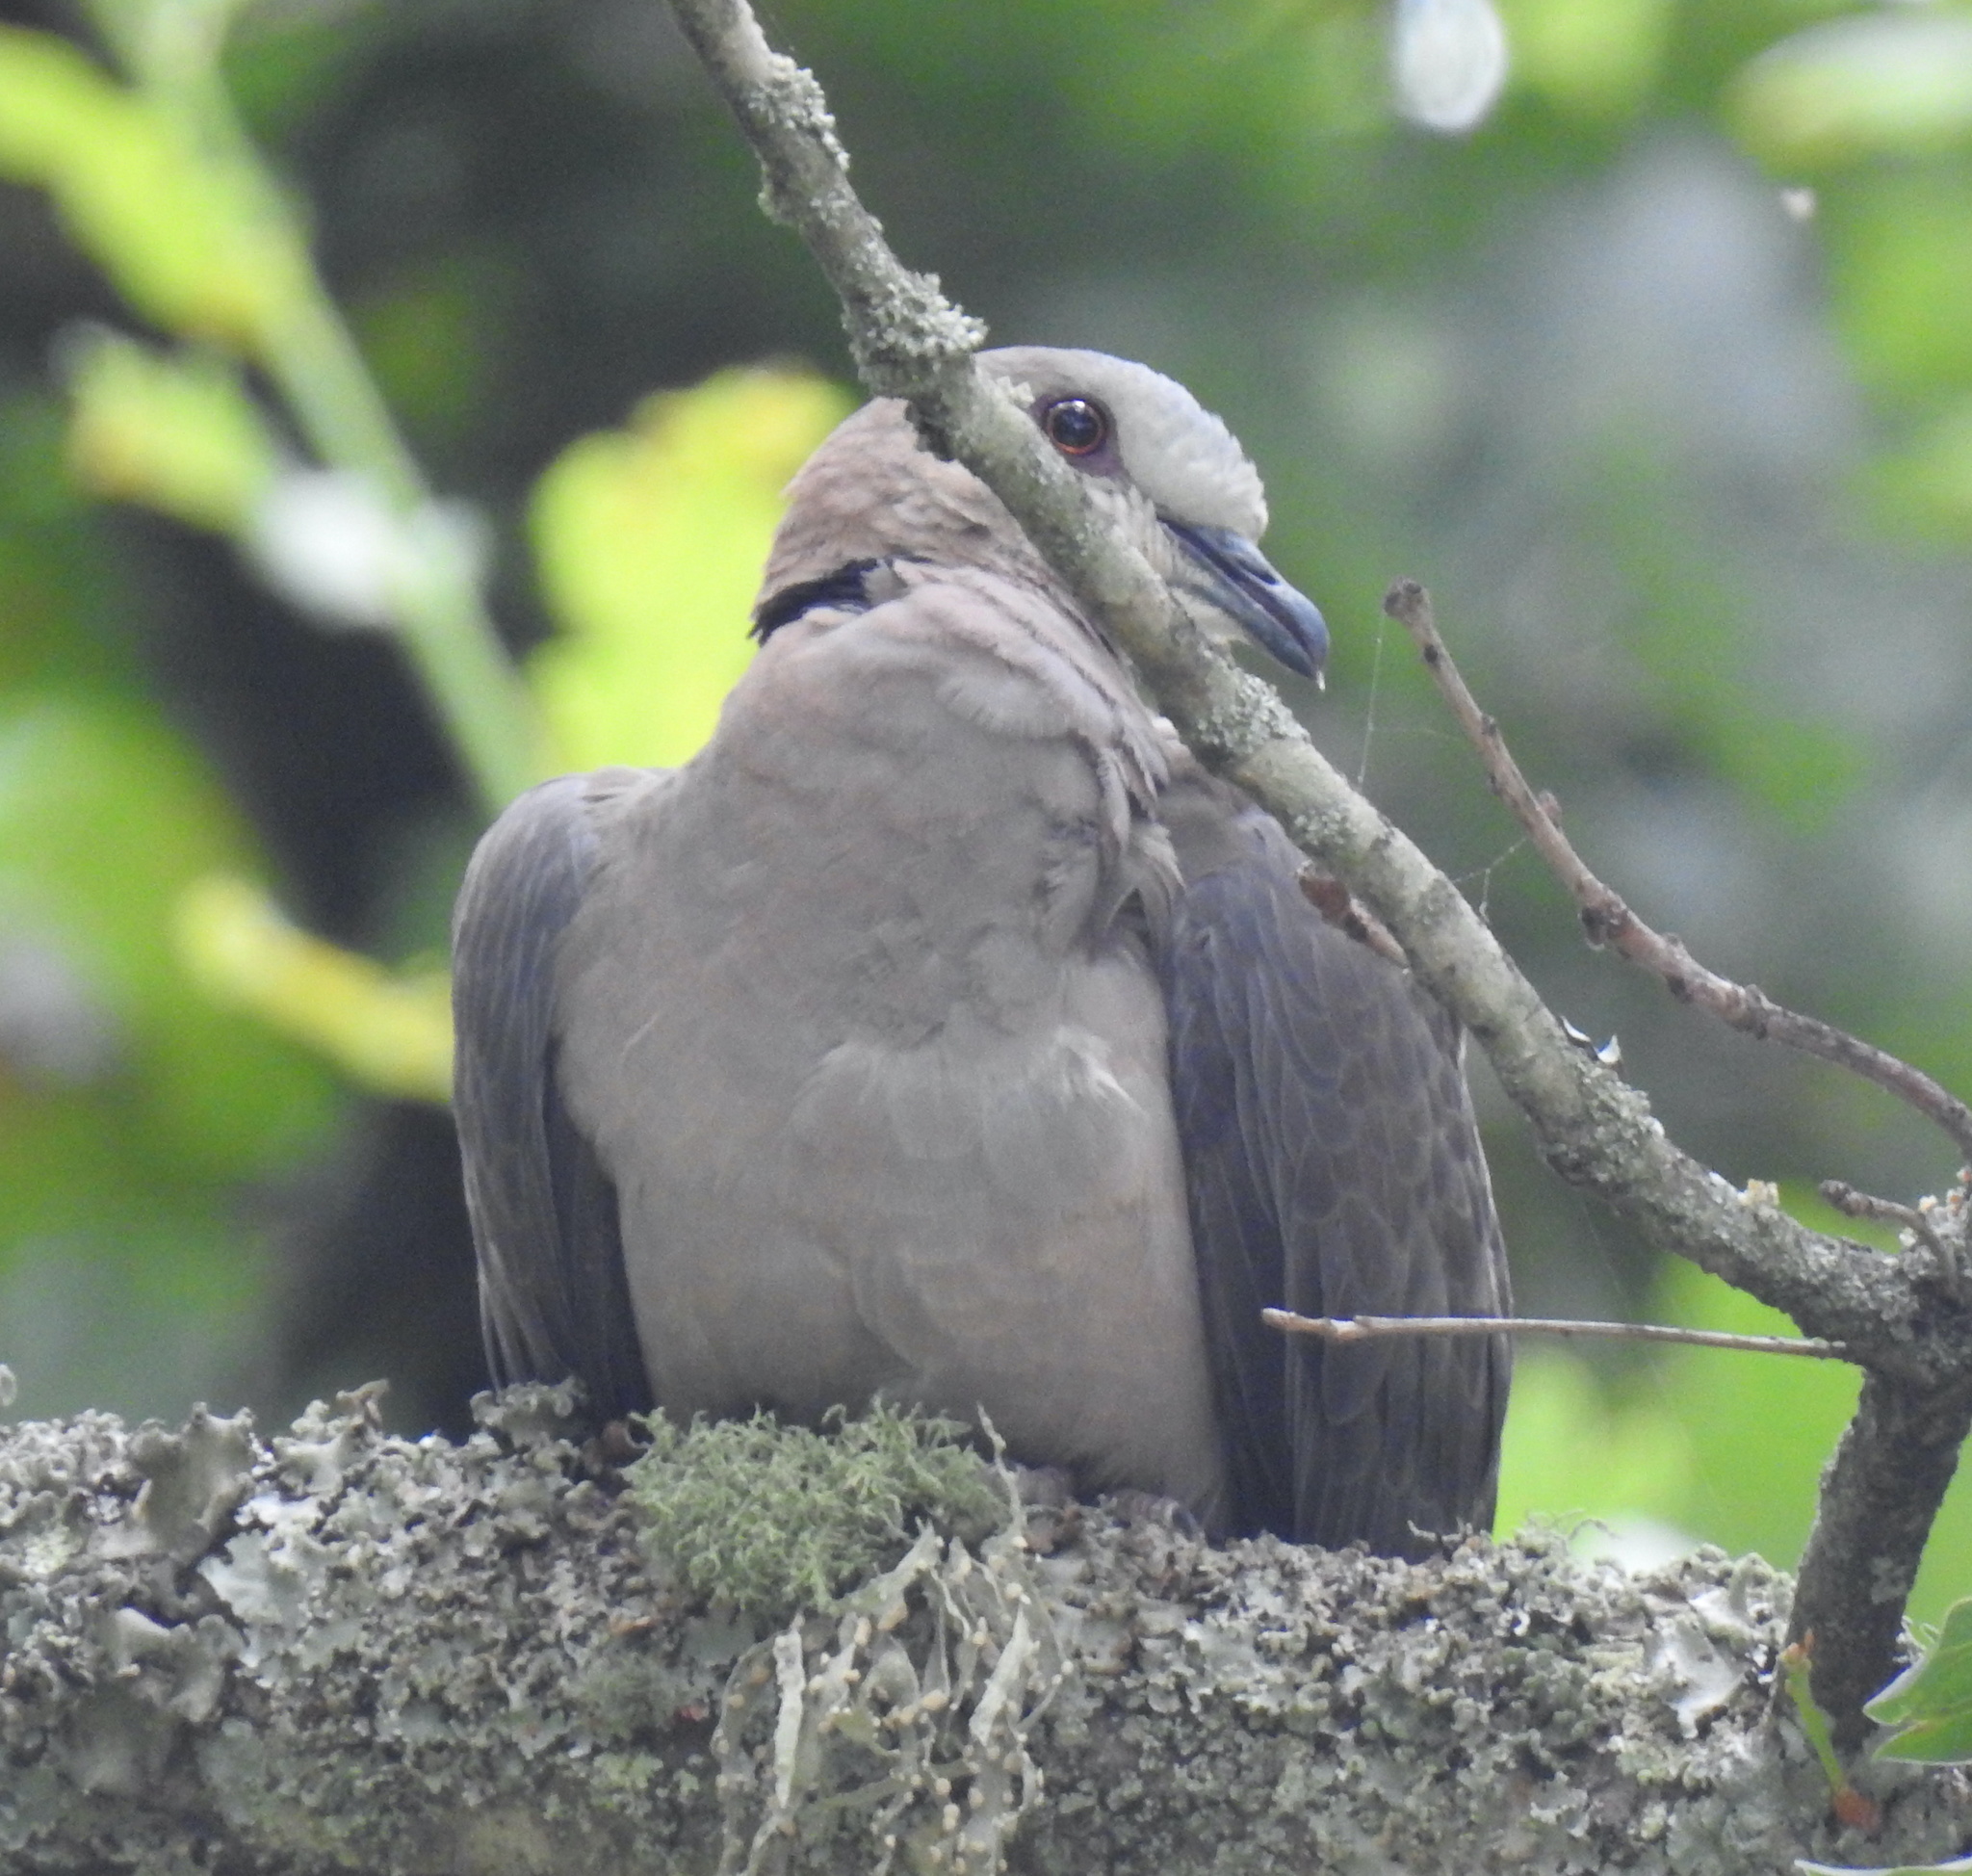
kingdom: Animalia
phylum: Chordata
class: Aves
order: Columbiformes
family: Columbidae
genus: Streptopelia
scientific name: Streptopelia semitorquata
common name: Red-eyed dove
